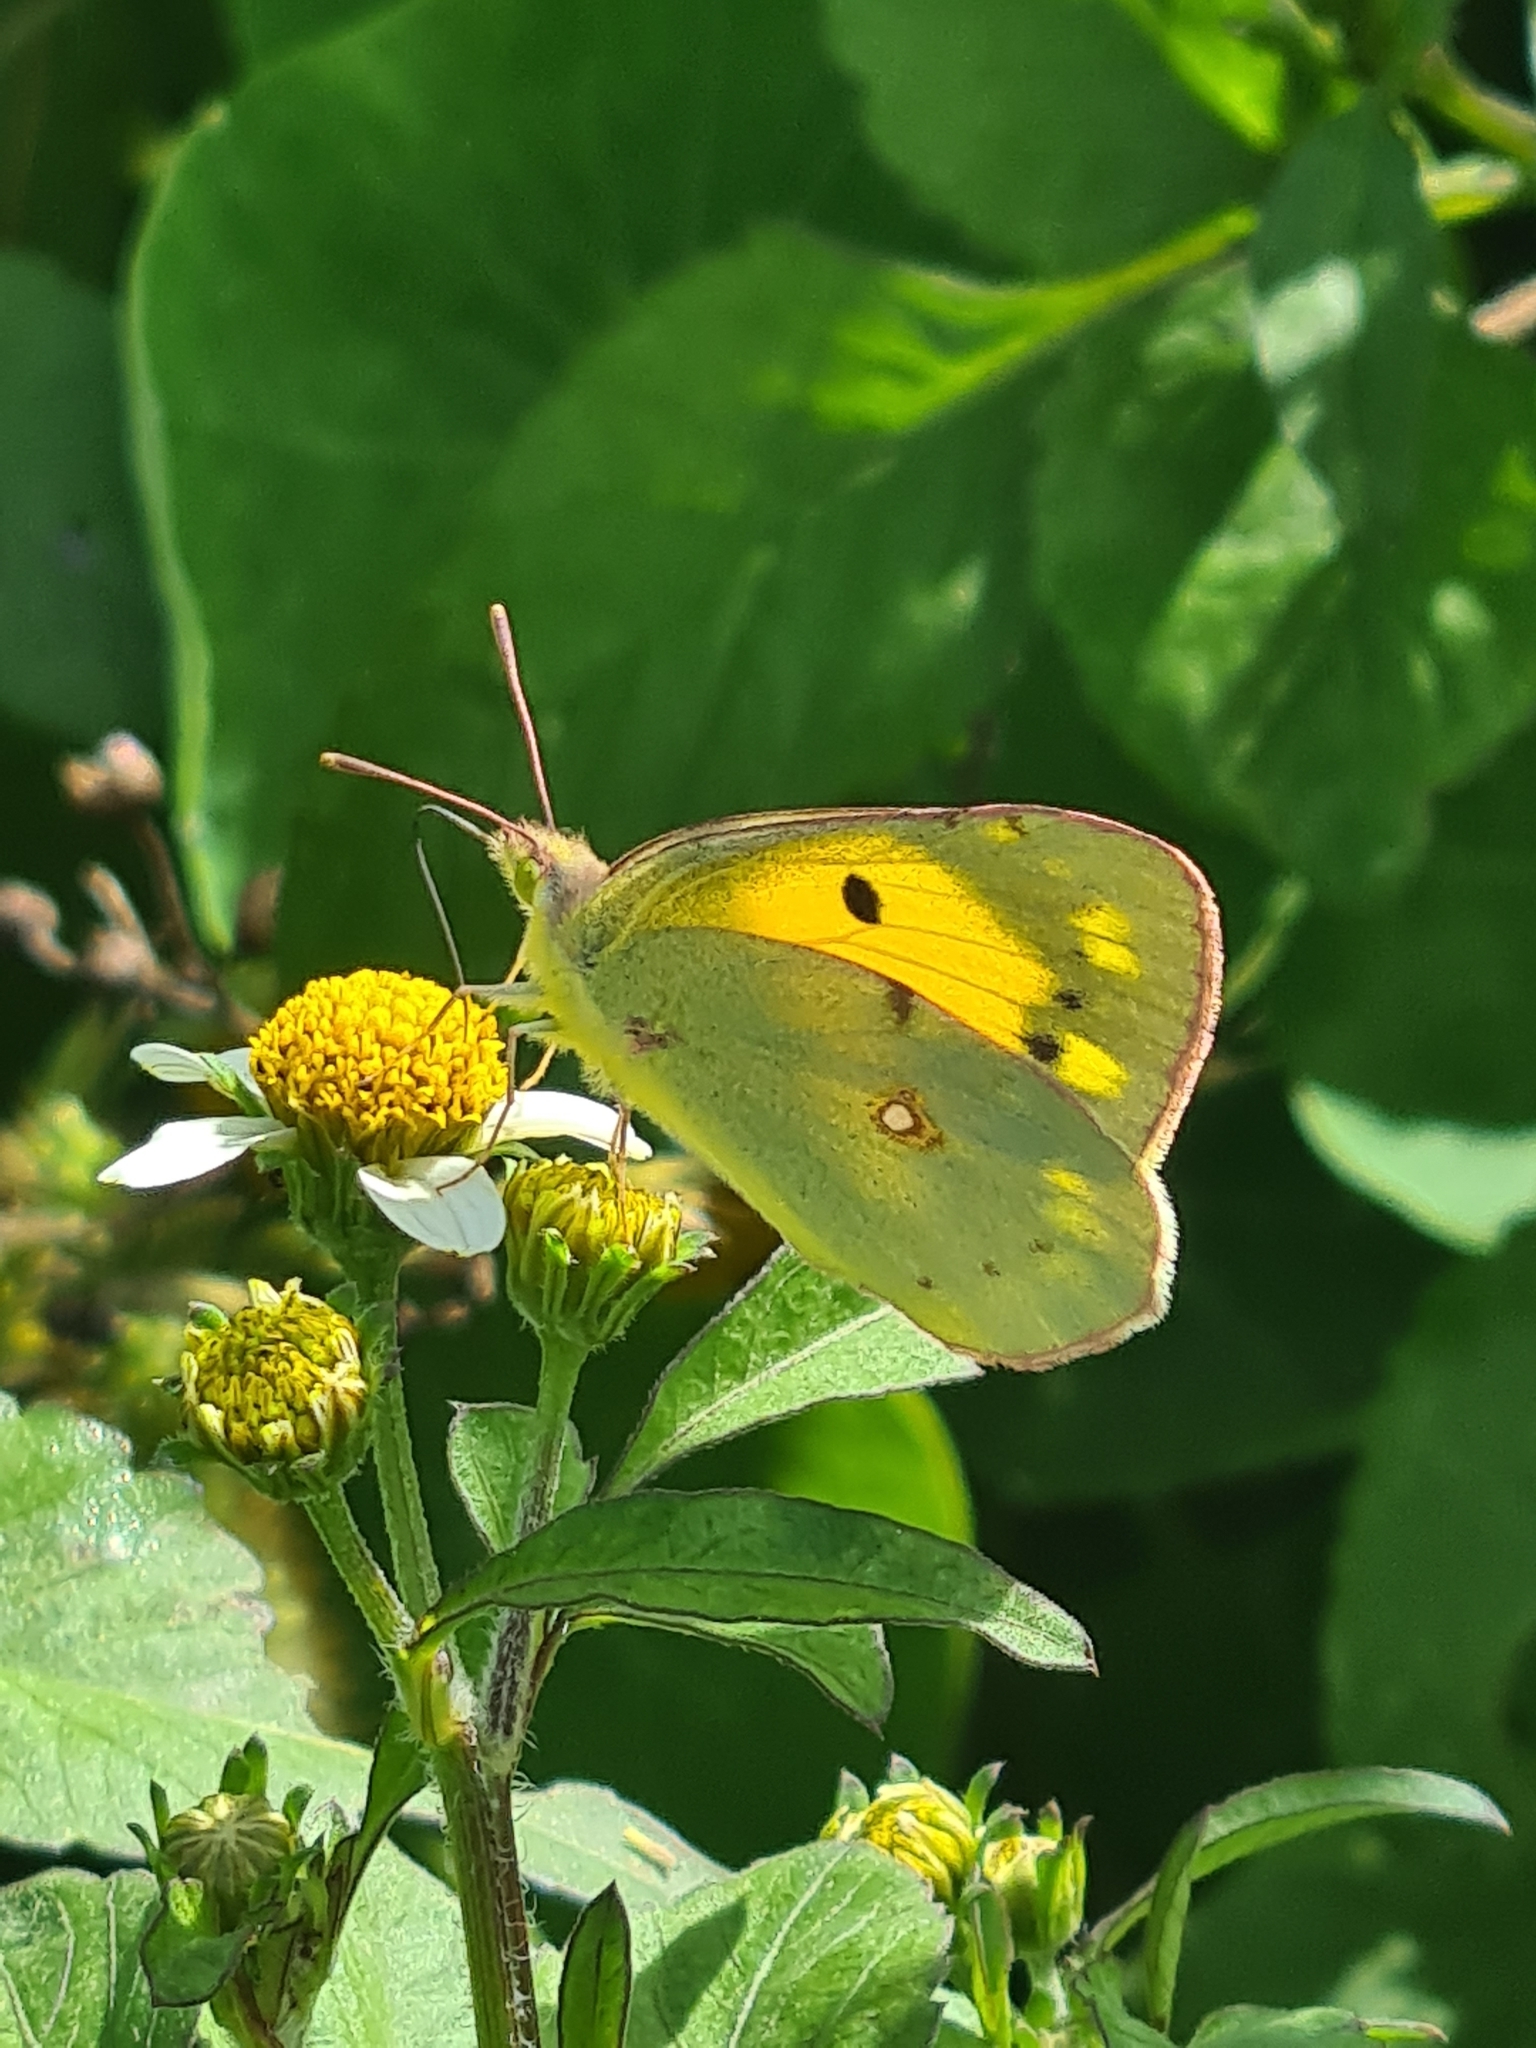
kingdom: Animalia
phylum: Arthropoda
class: Insecta
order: Lepidoptera
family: Pieridae
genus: Colias
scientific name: Colias croceus
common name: Clouded yellow
